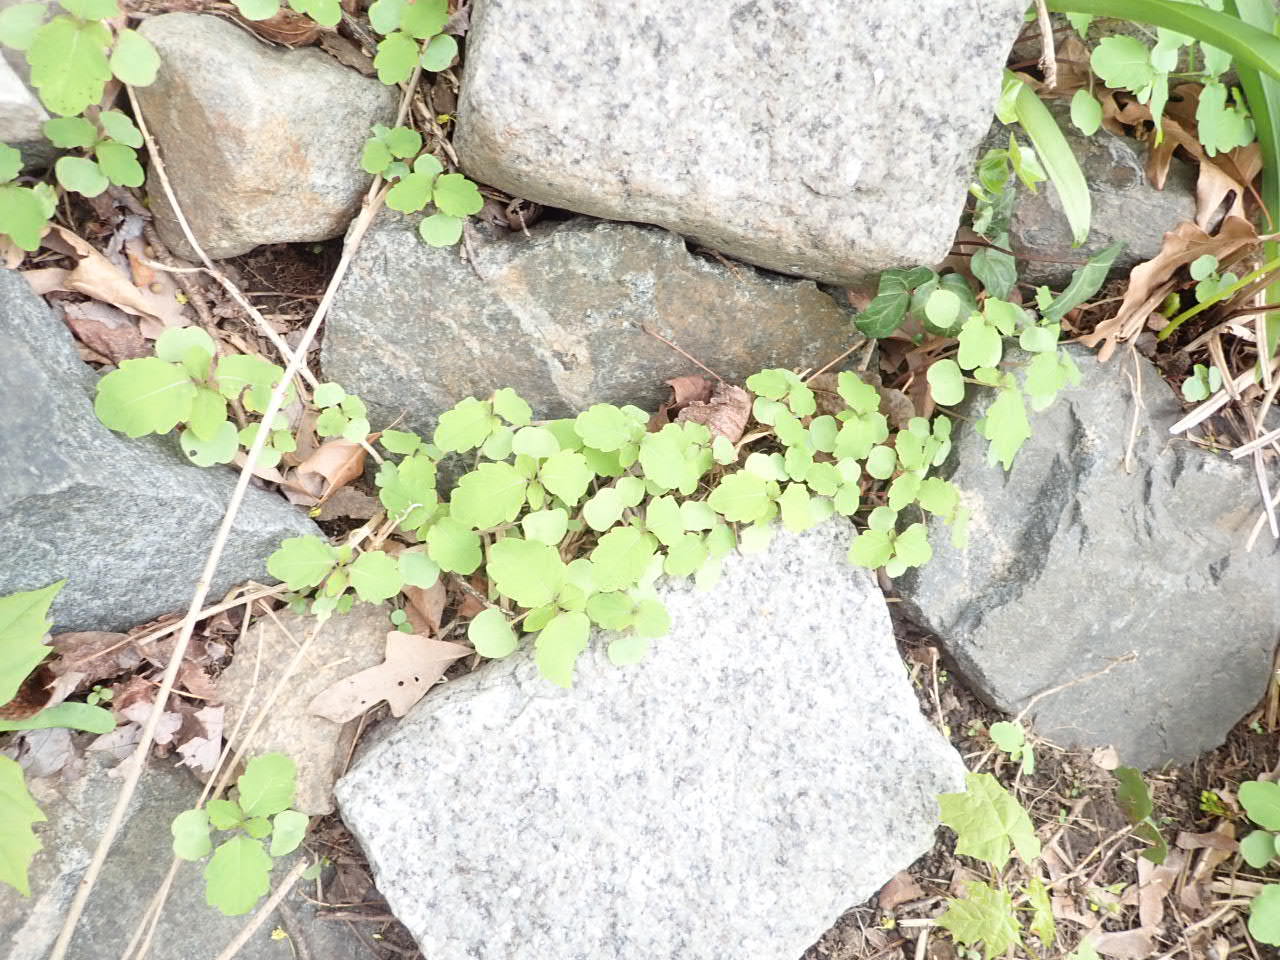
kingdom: Plantae
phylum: Tracheophyta
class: Magnoliopsida
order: Ericales
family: Balsaminaceae
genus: Impatiens
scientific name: Impatiens capensis
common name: Orange balsam
